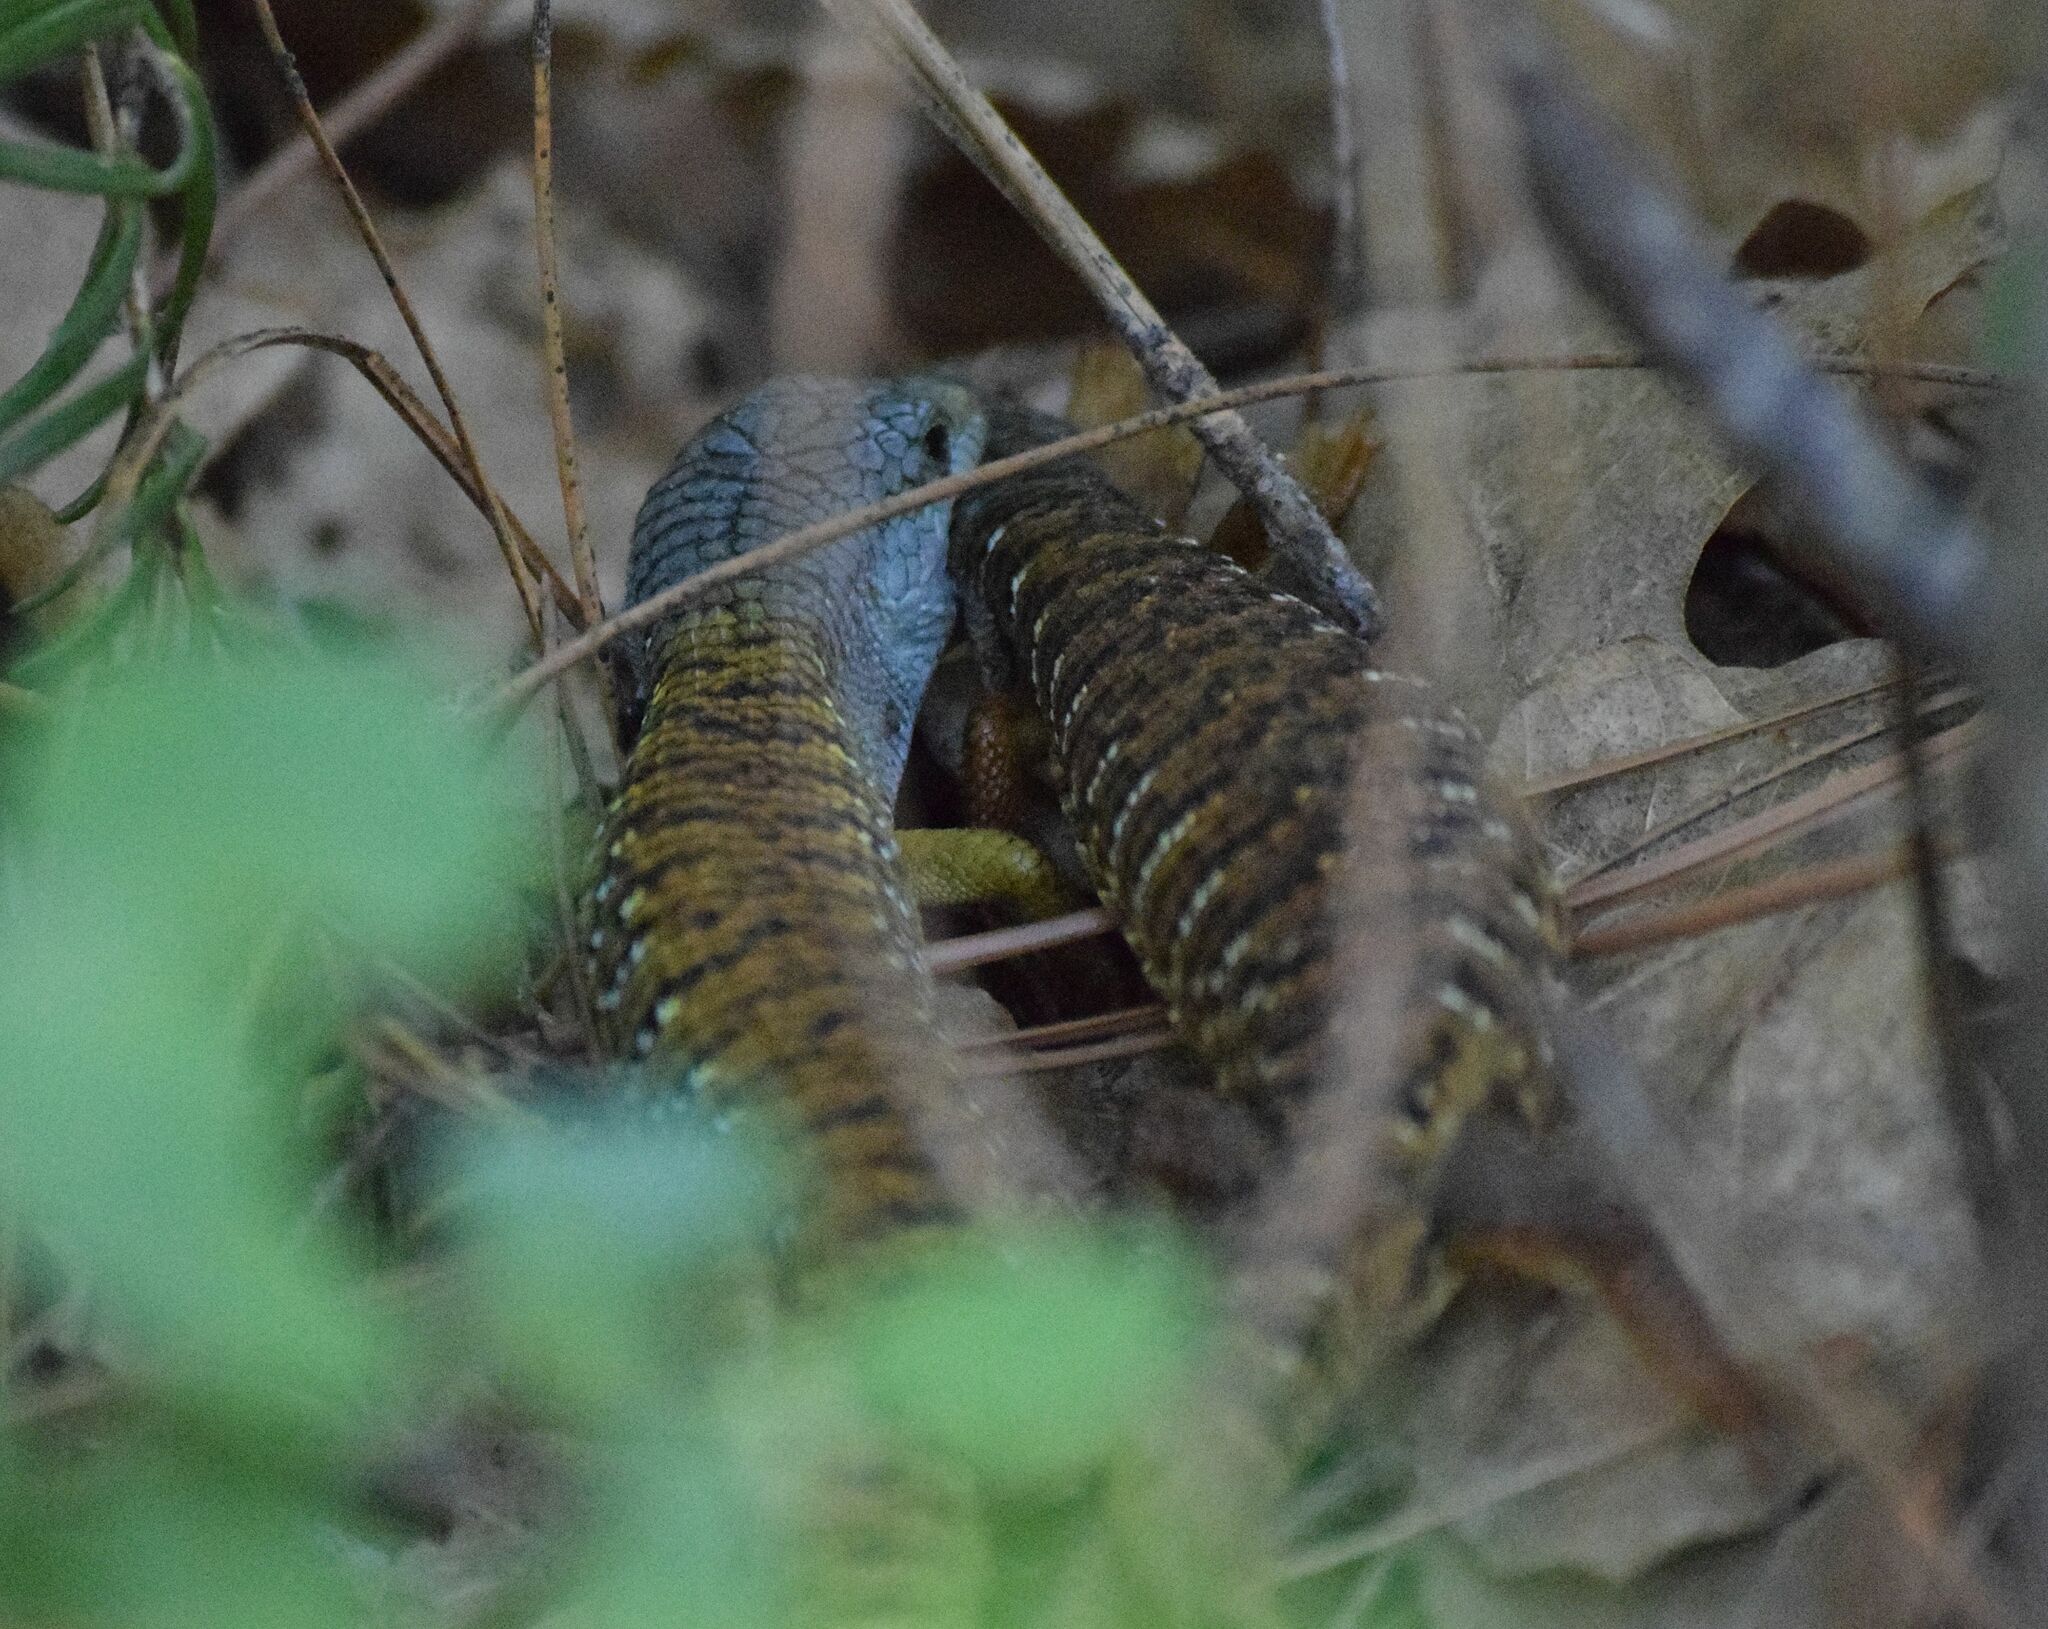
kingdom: Animalia
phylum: Chordata
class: Squamata
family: Anguidae
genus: Elgaria
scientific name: Elgaria coerulea
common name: Northern alligator lizard
